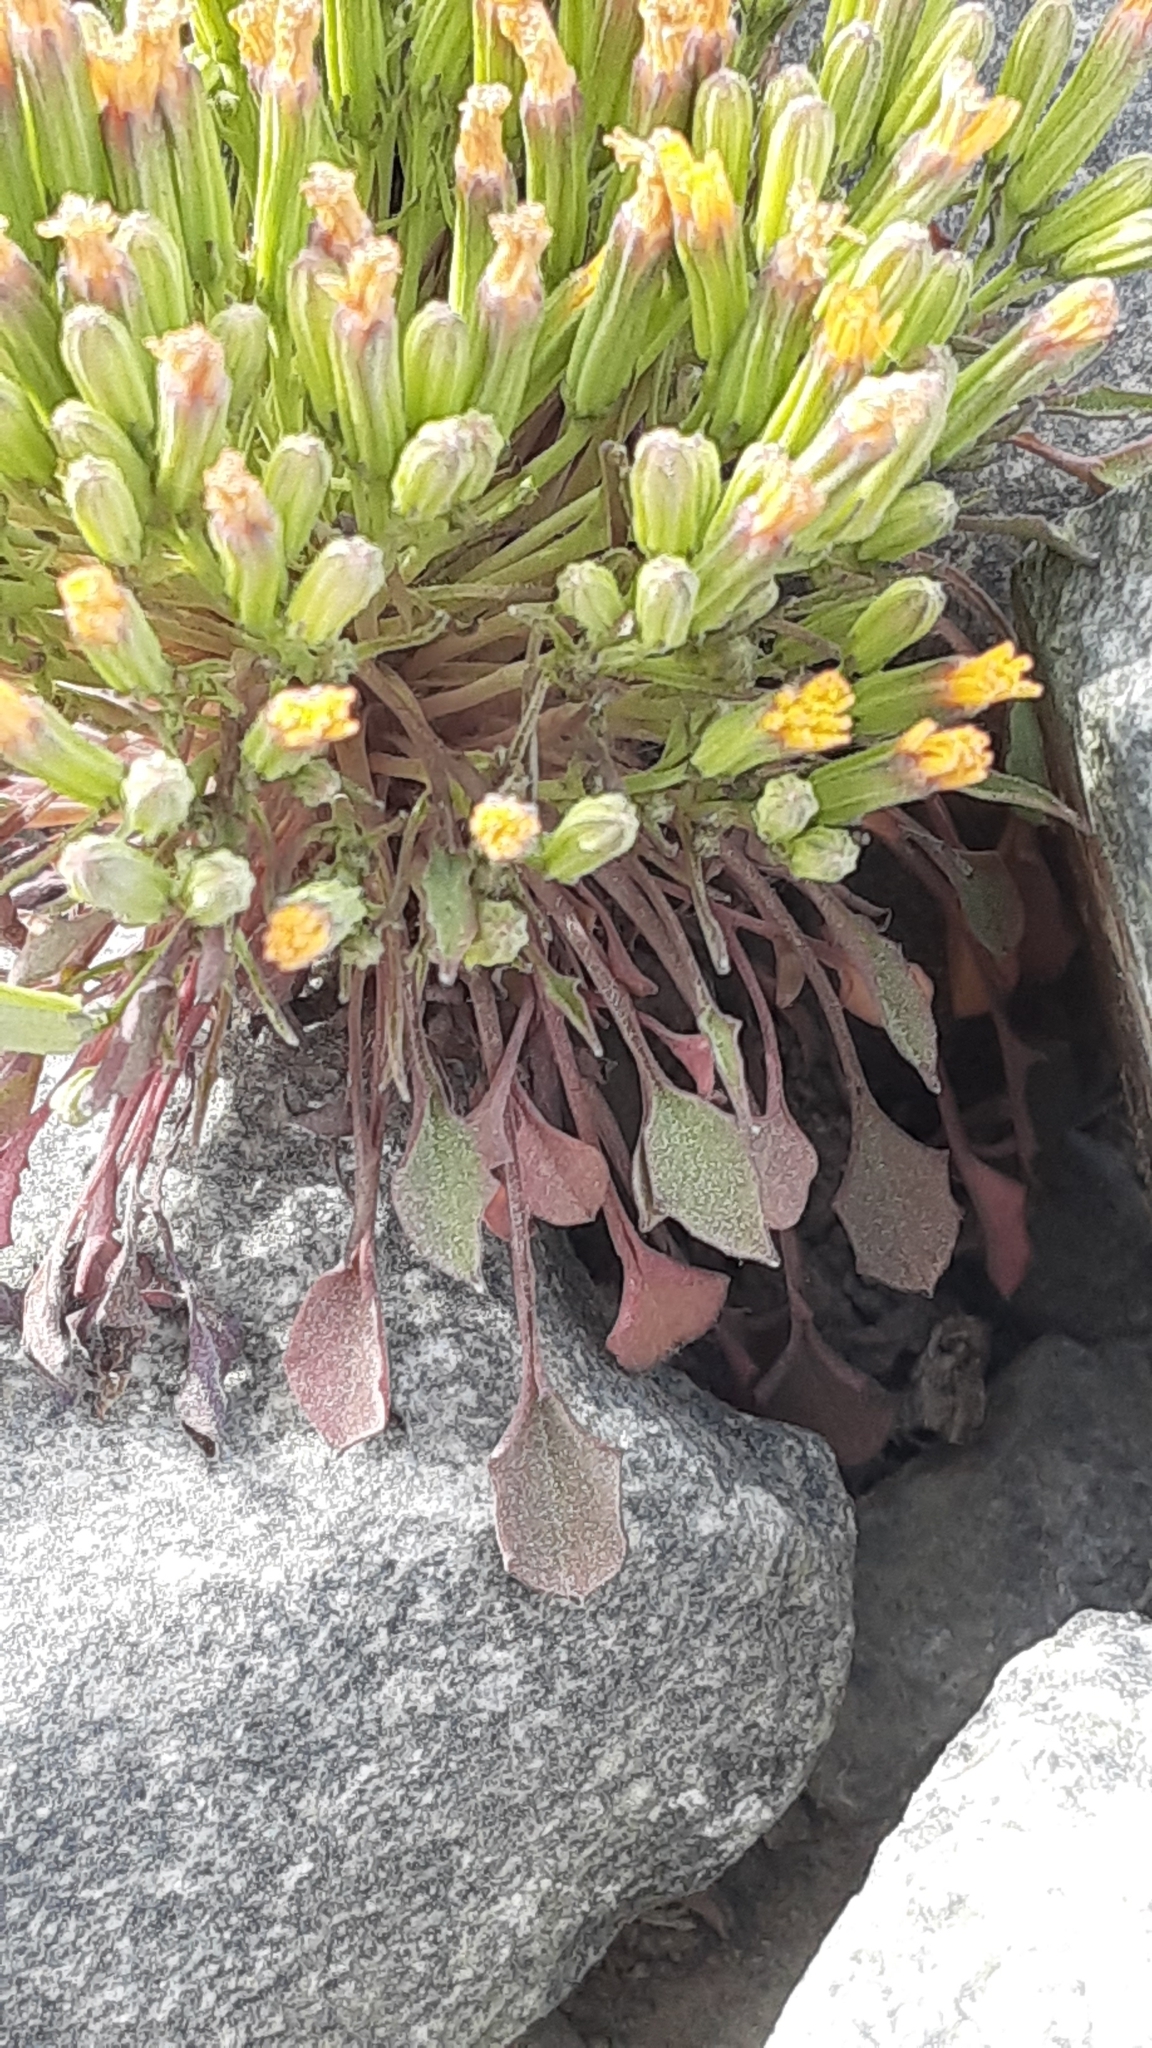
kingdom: Plantae
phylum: Tracheophyta
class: Magnoliopsida
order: Asterales
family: Asteraceae
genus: Askellia
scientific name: Askellia pygmaea
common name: Dwarf alpine hawksbeard
